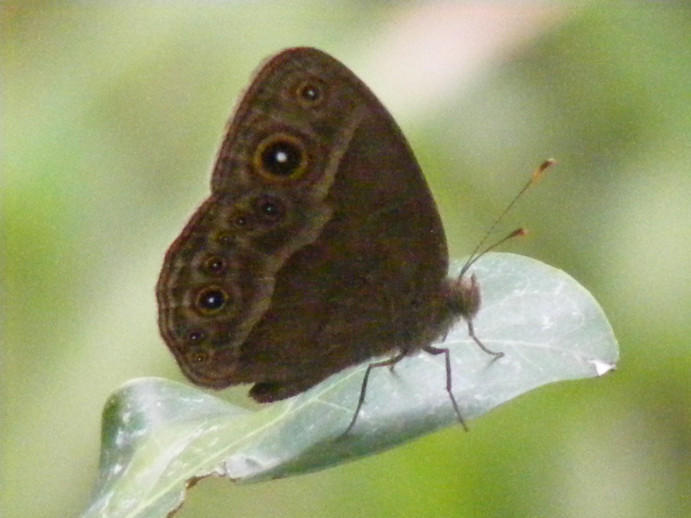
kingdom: Animalia
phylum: Arthropoda
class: Insecta
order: Lepidoptera
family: Nymphalidae
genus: Mycalesis
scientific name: Mycalesis anynana
